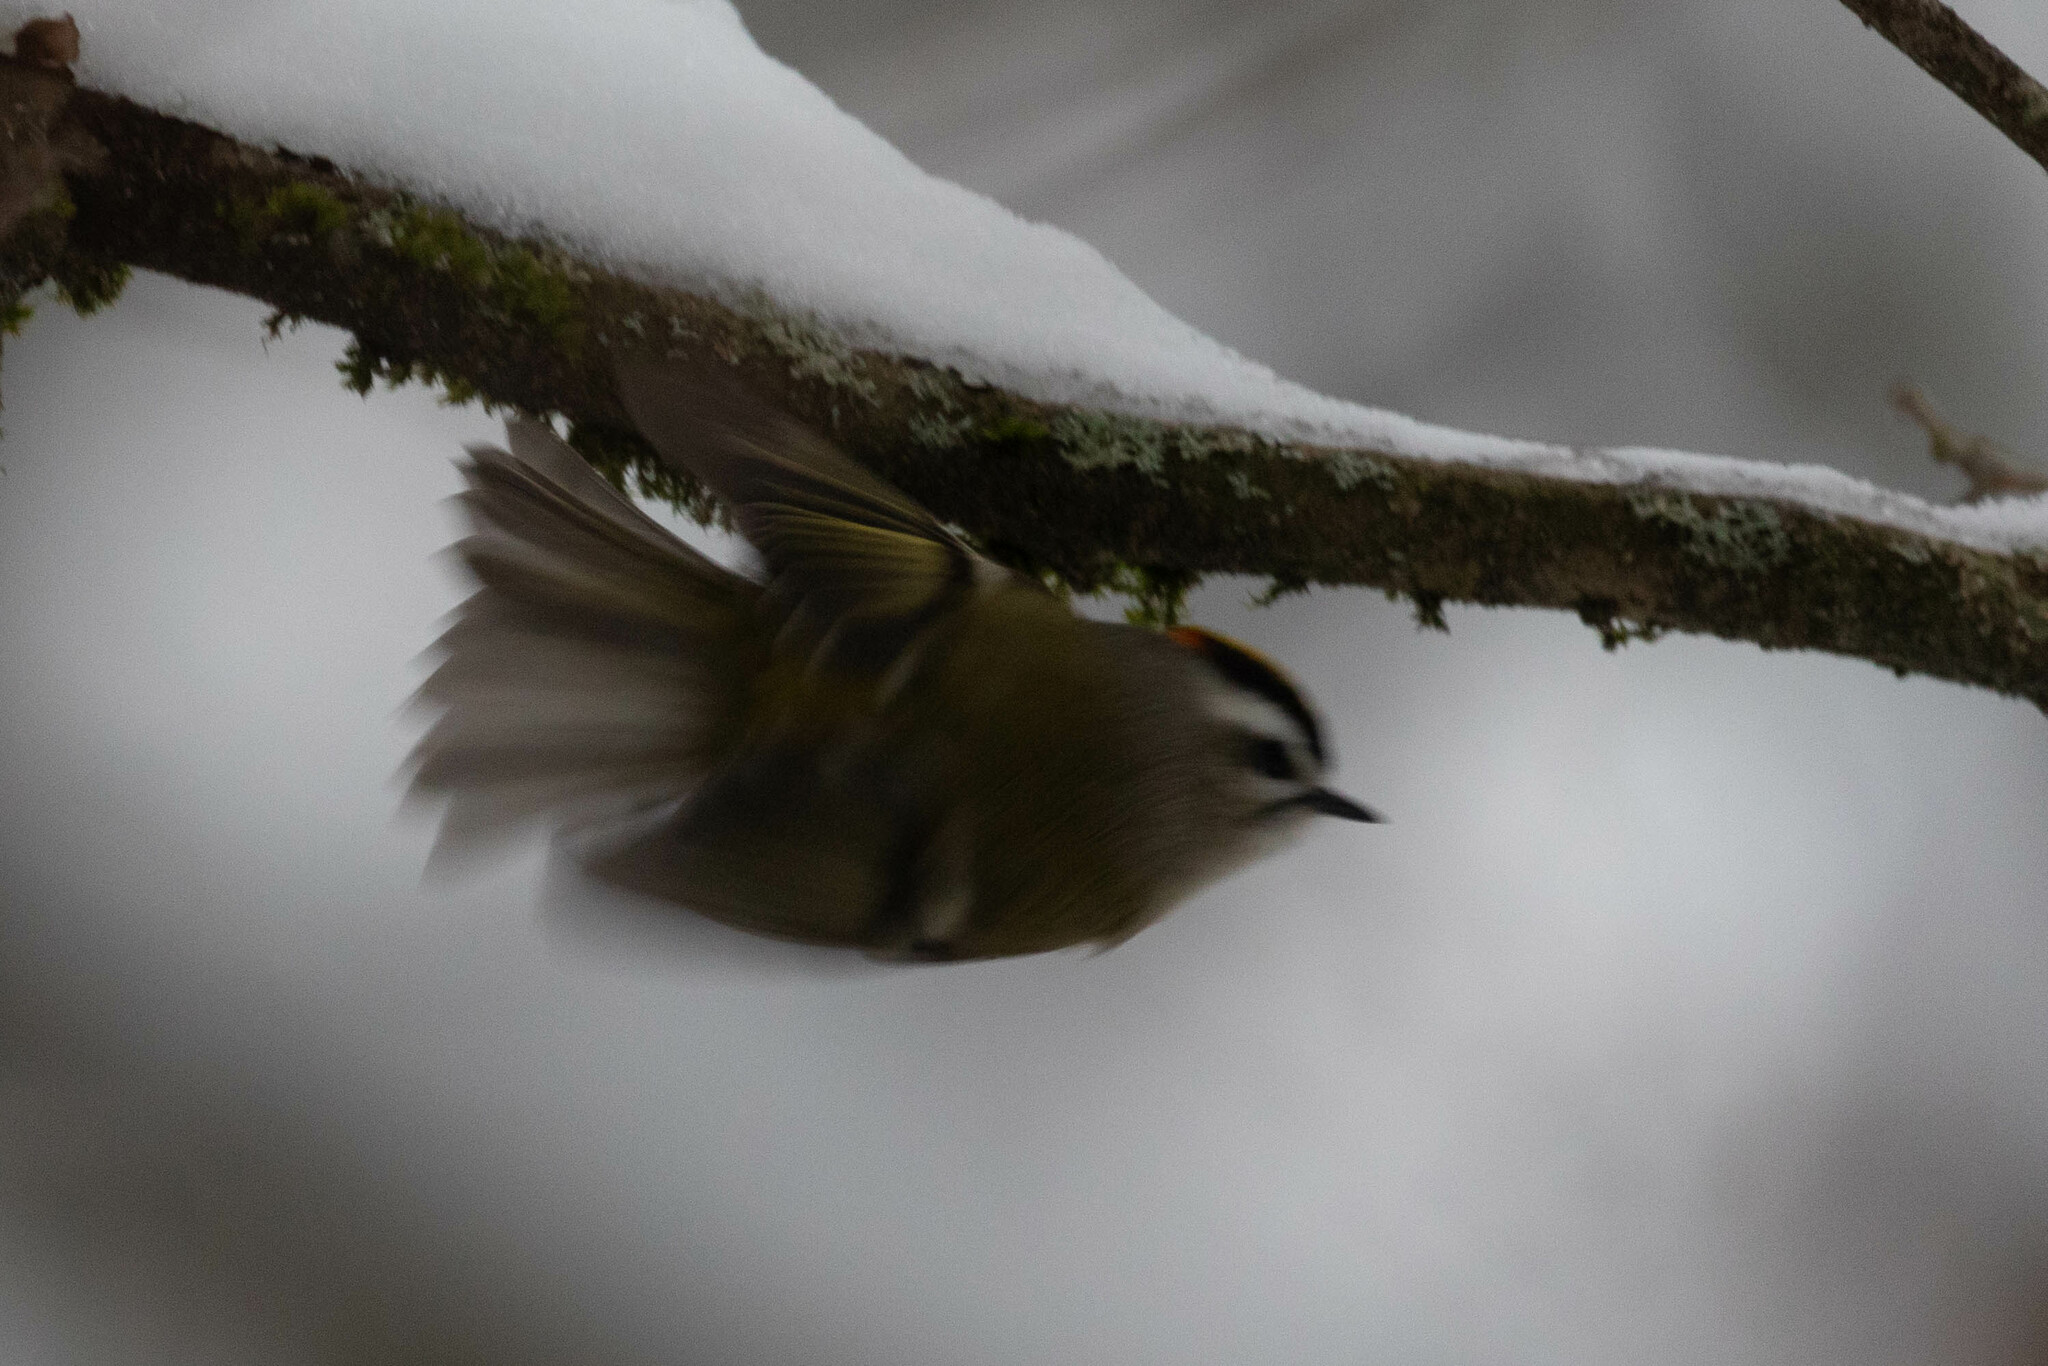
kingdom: Animalia
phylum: Chordata
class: Aves
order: Passeriformes
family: Regulidae
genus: Regulus
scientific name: Regulus satrapa
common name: Golden-crowned kinglet
